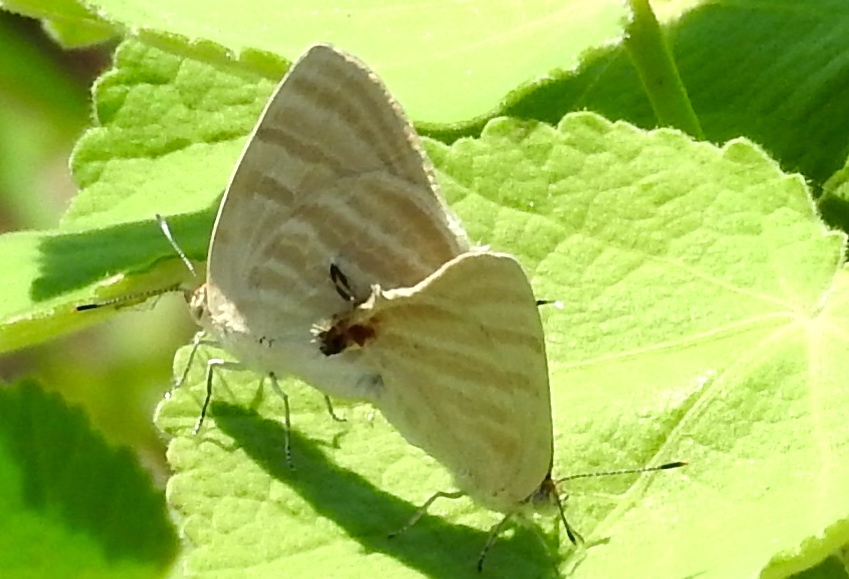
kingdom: Animalia
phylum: Arthropoda
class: Insecta
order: Lepidoptera
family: Lycaenidae
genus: Dolymorpha
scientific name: Dolymorpha jada
